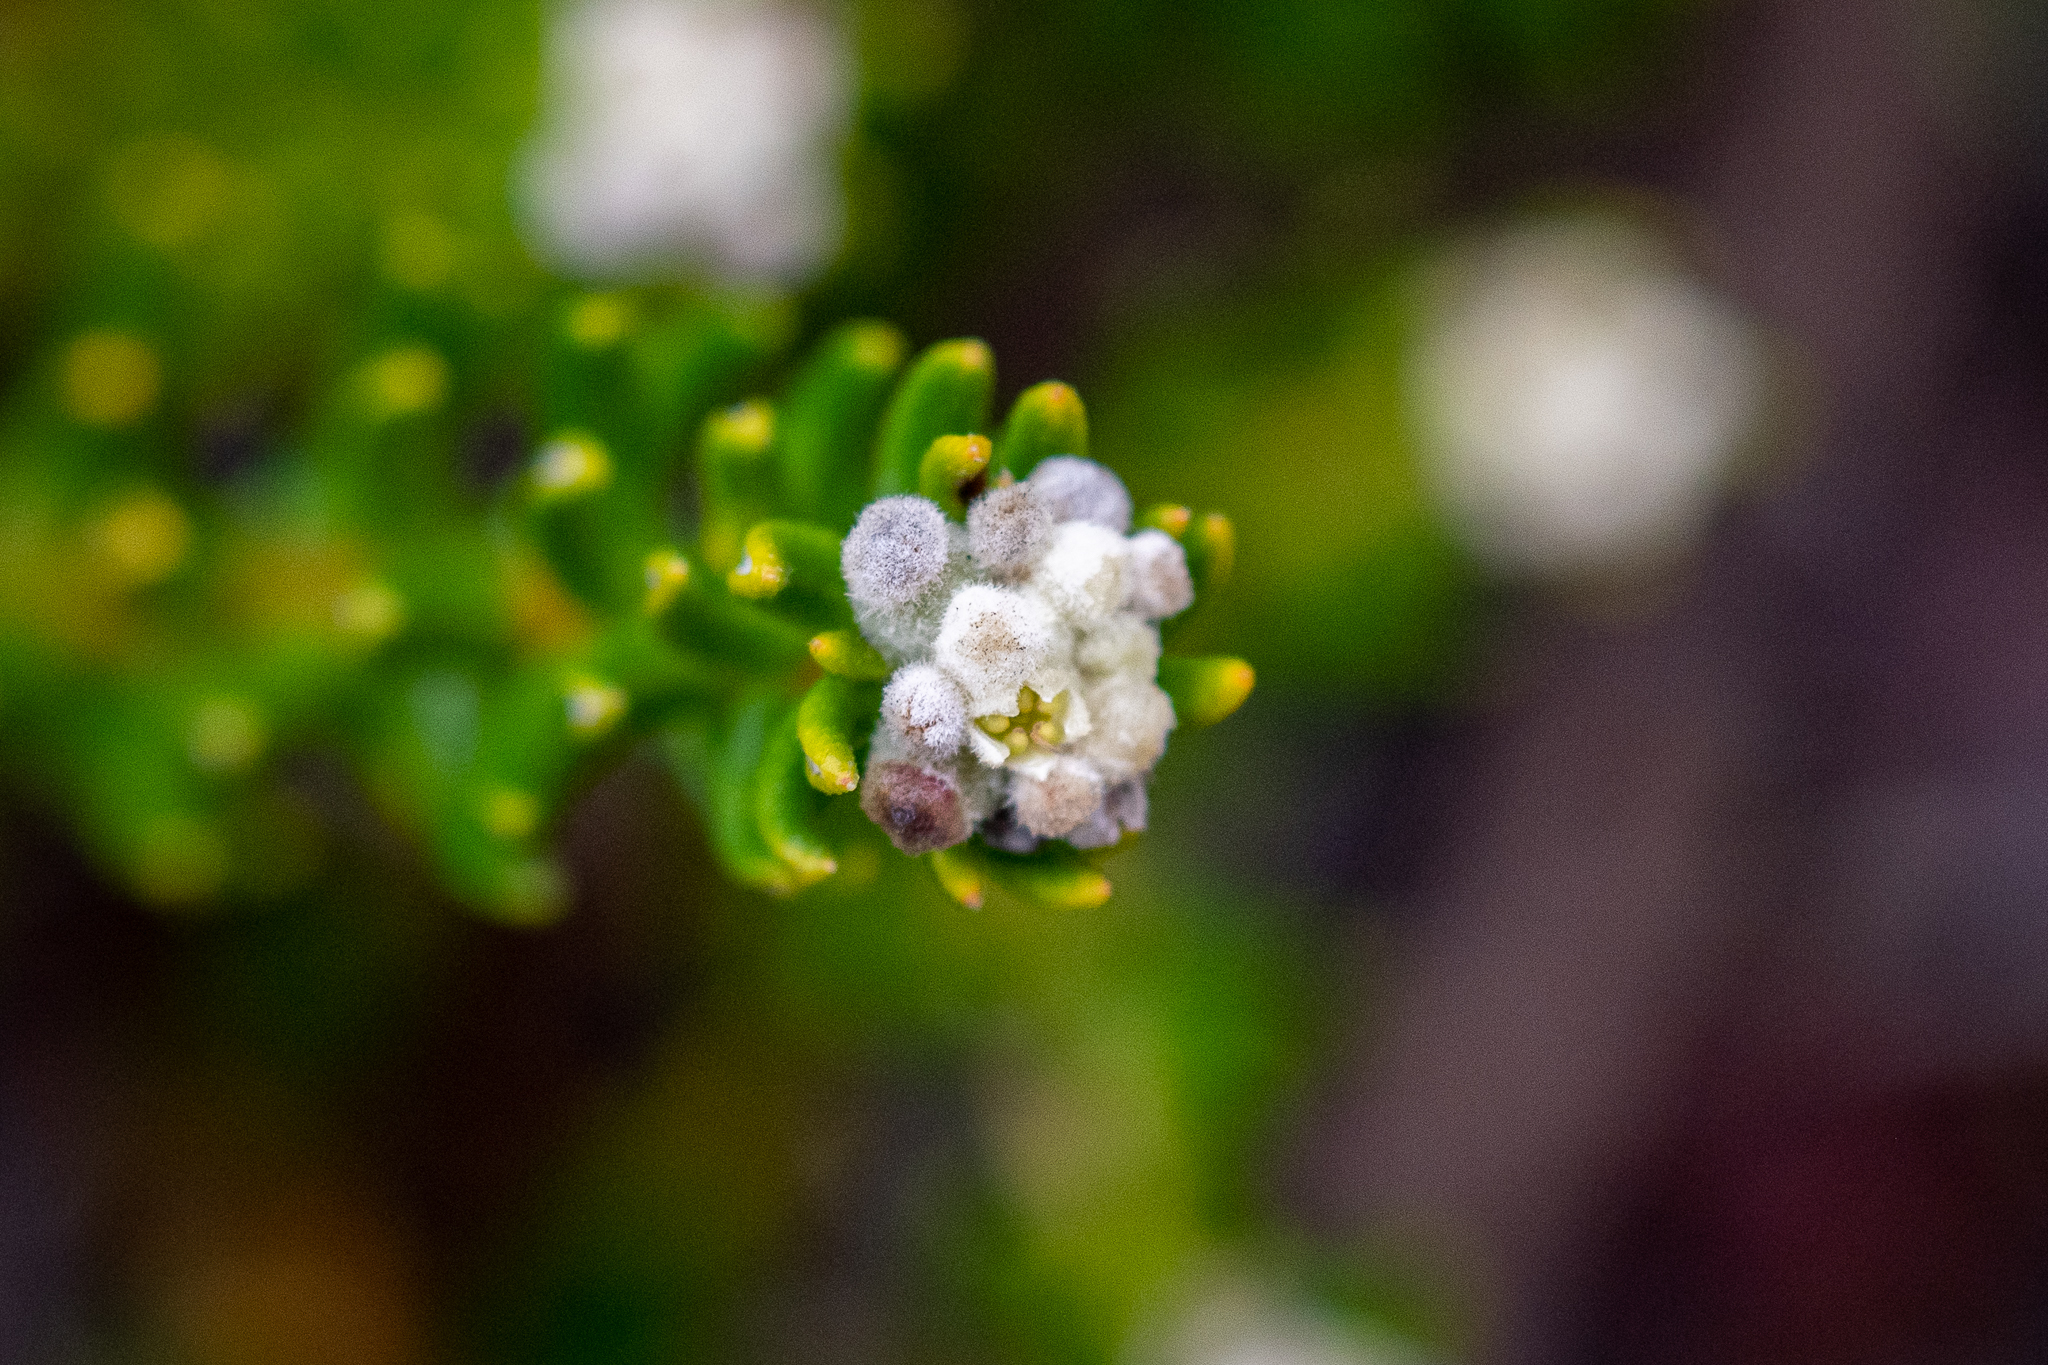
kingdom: Plantae
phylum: Tracheophyta
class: Magnoliopsida
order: Rosales
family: Rhamnaceae
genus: Phylica
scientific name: Phylica lasiocarpa
